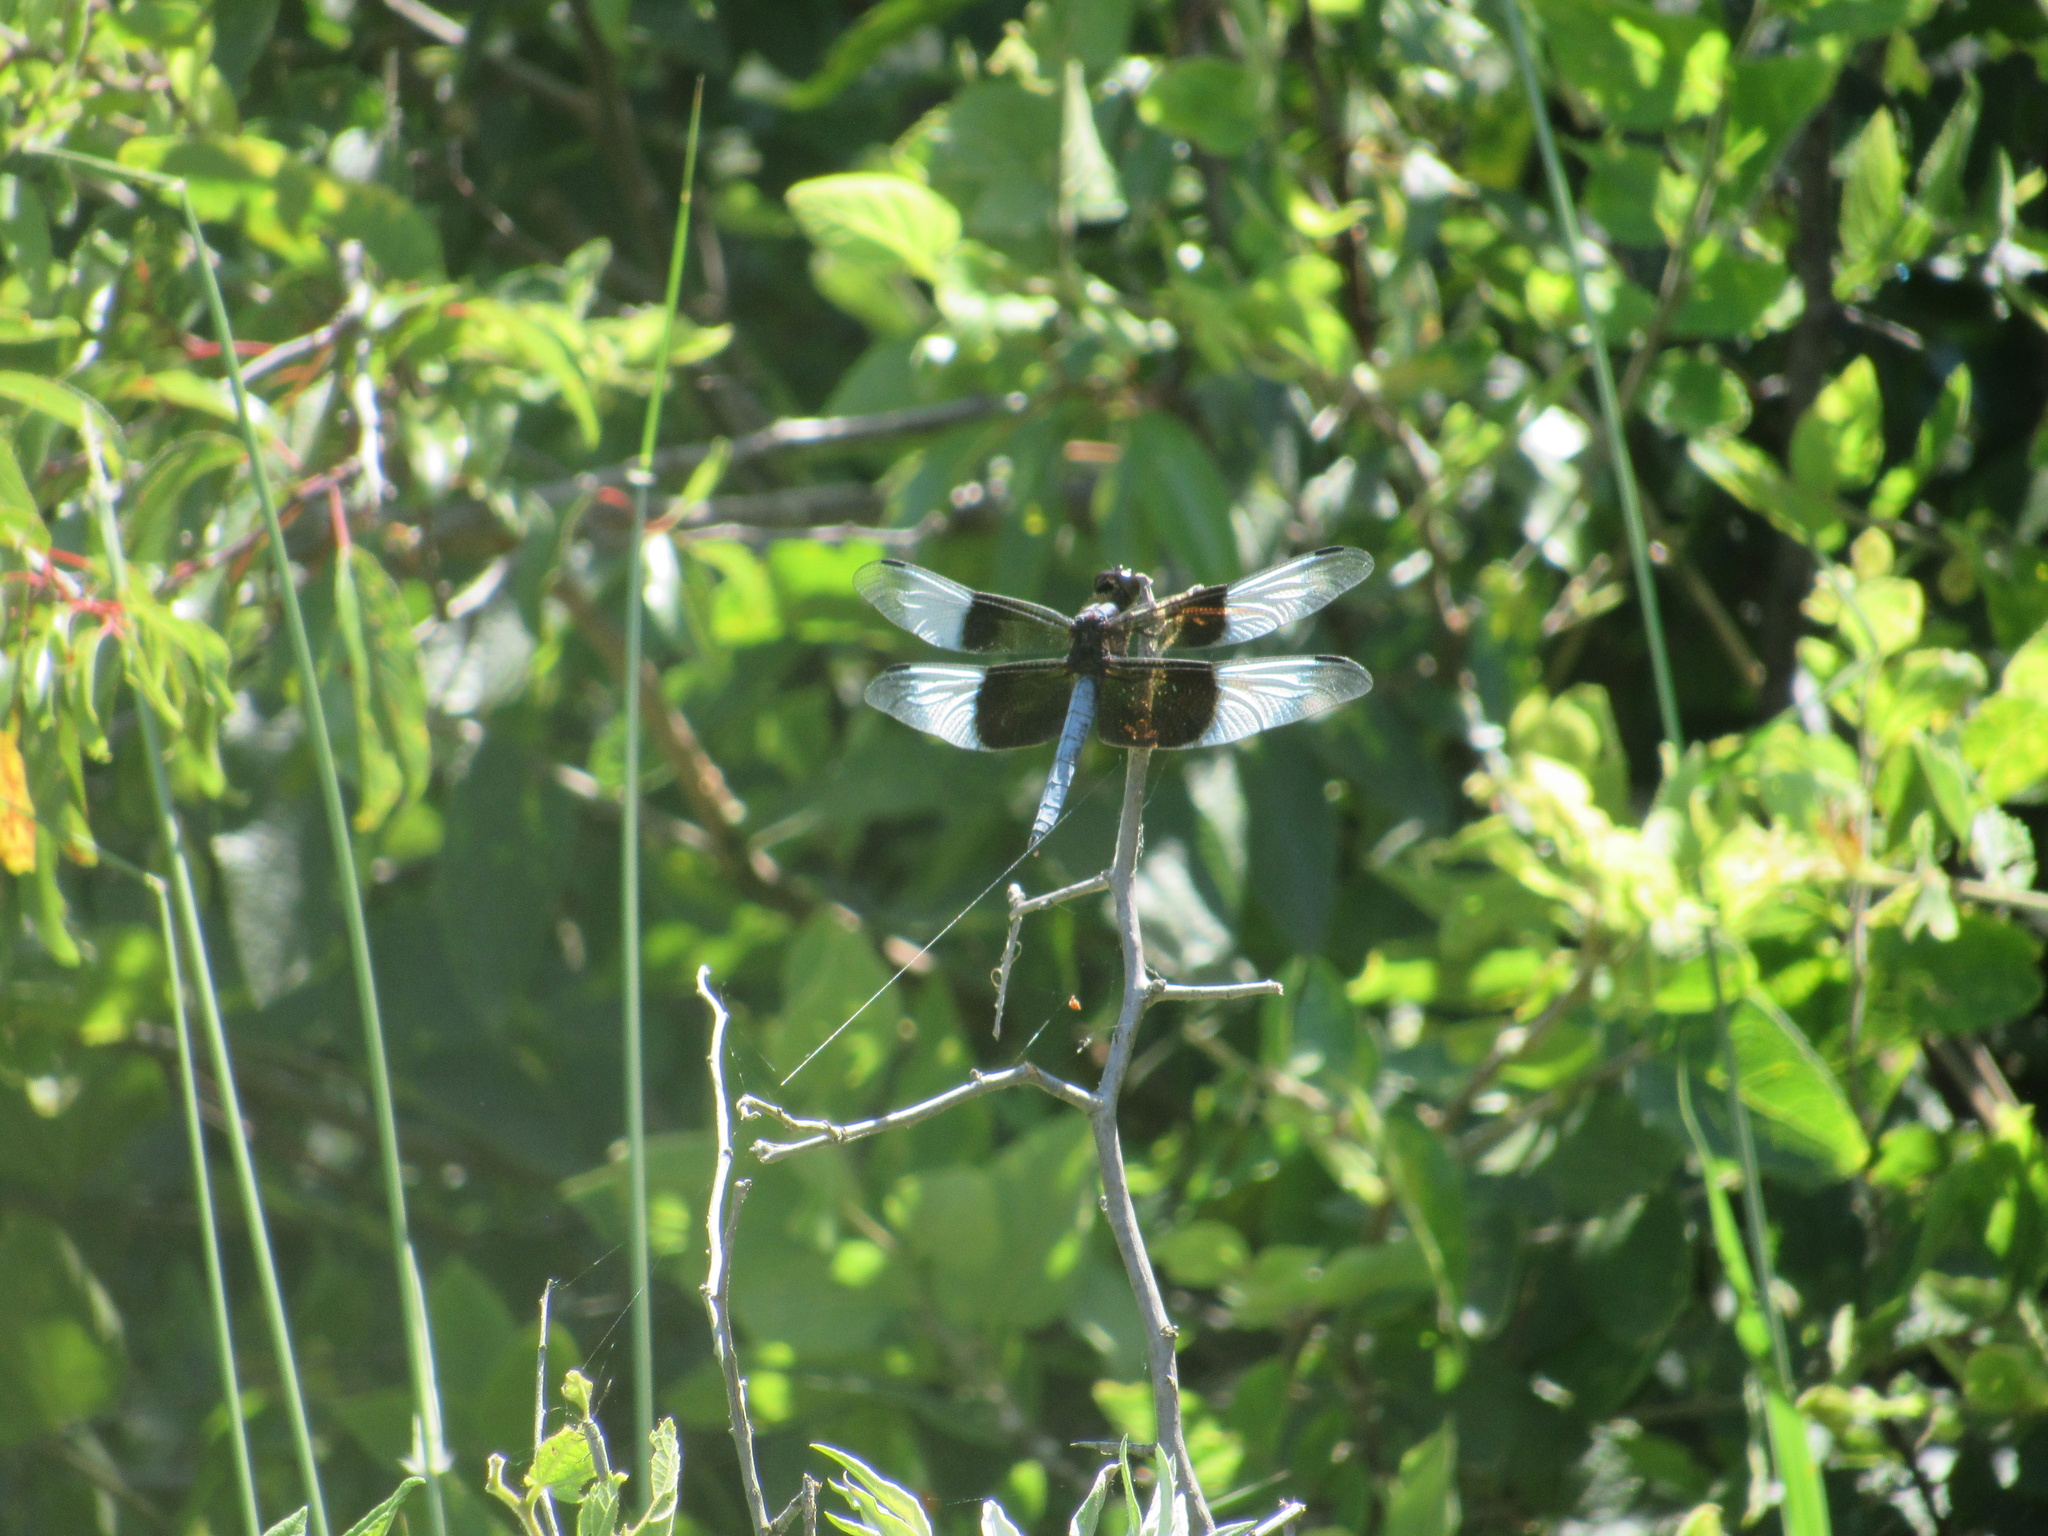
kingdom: Animalia
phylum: Arthropoda
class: Insecta
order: Odonata
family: Libellulidae
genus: Libellula
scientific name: Libellula luctuosa
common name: Widow skimmer
